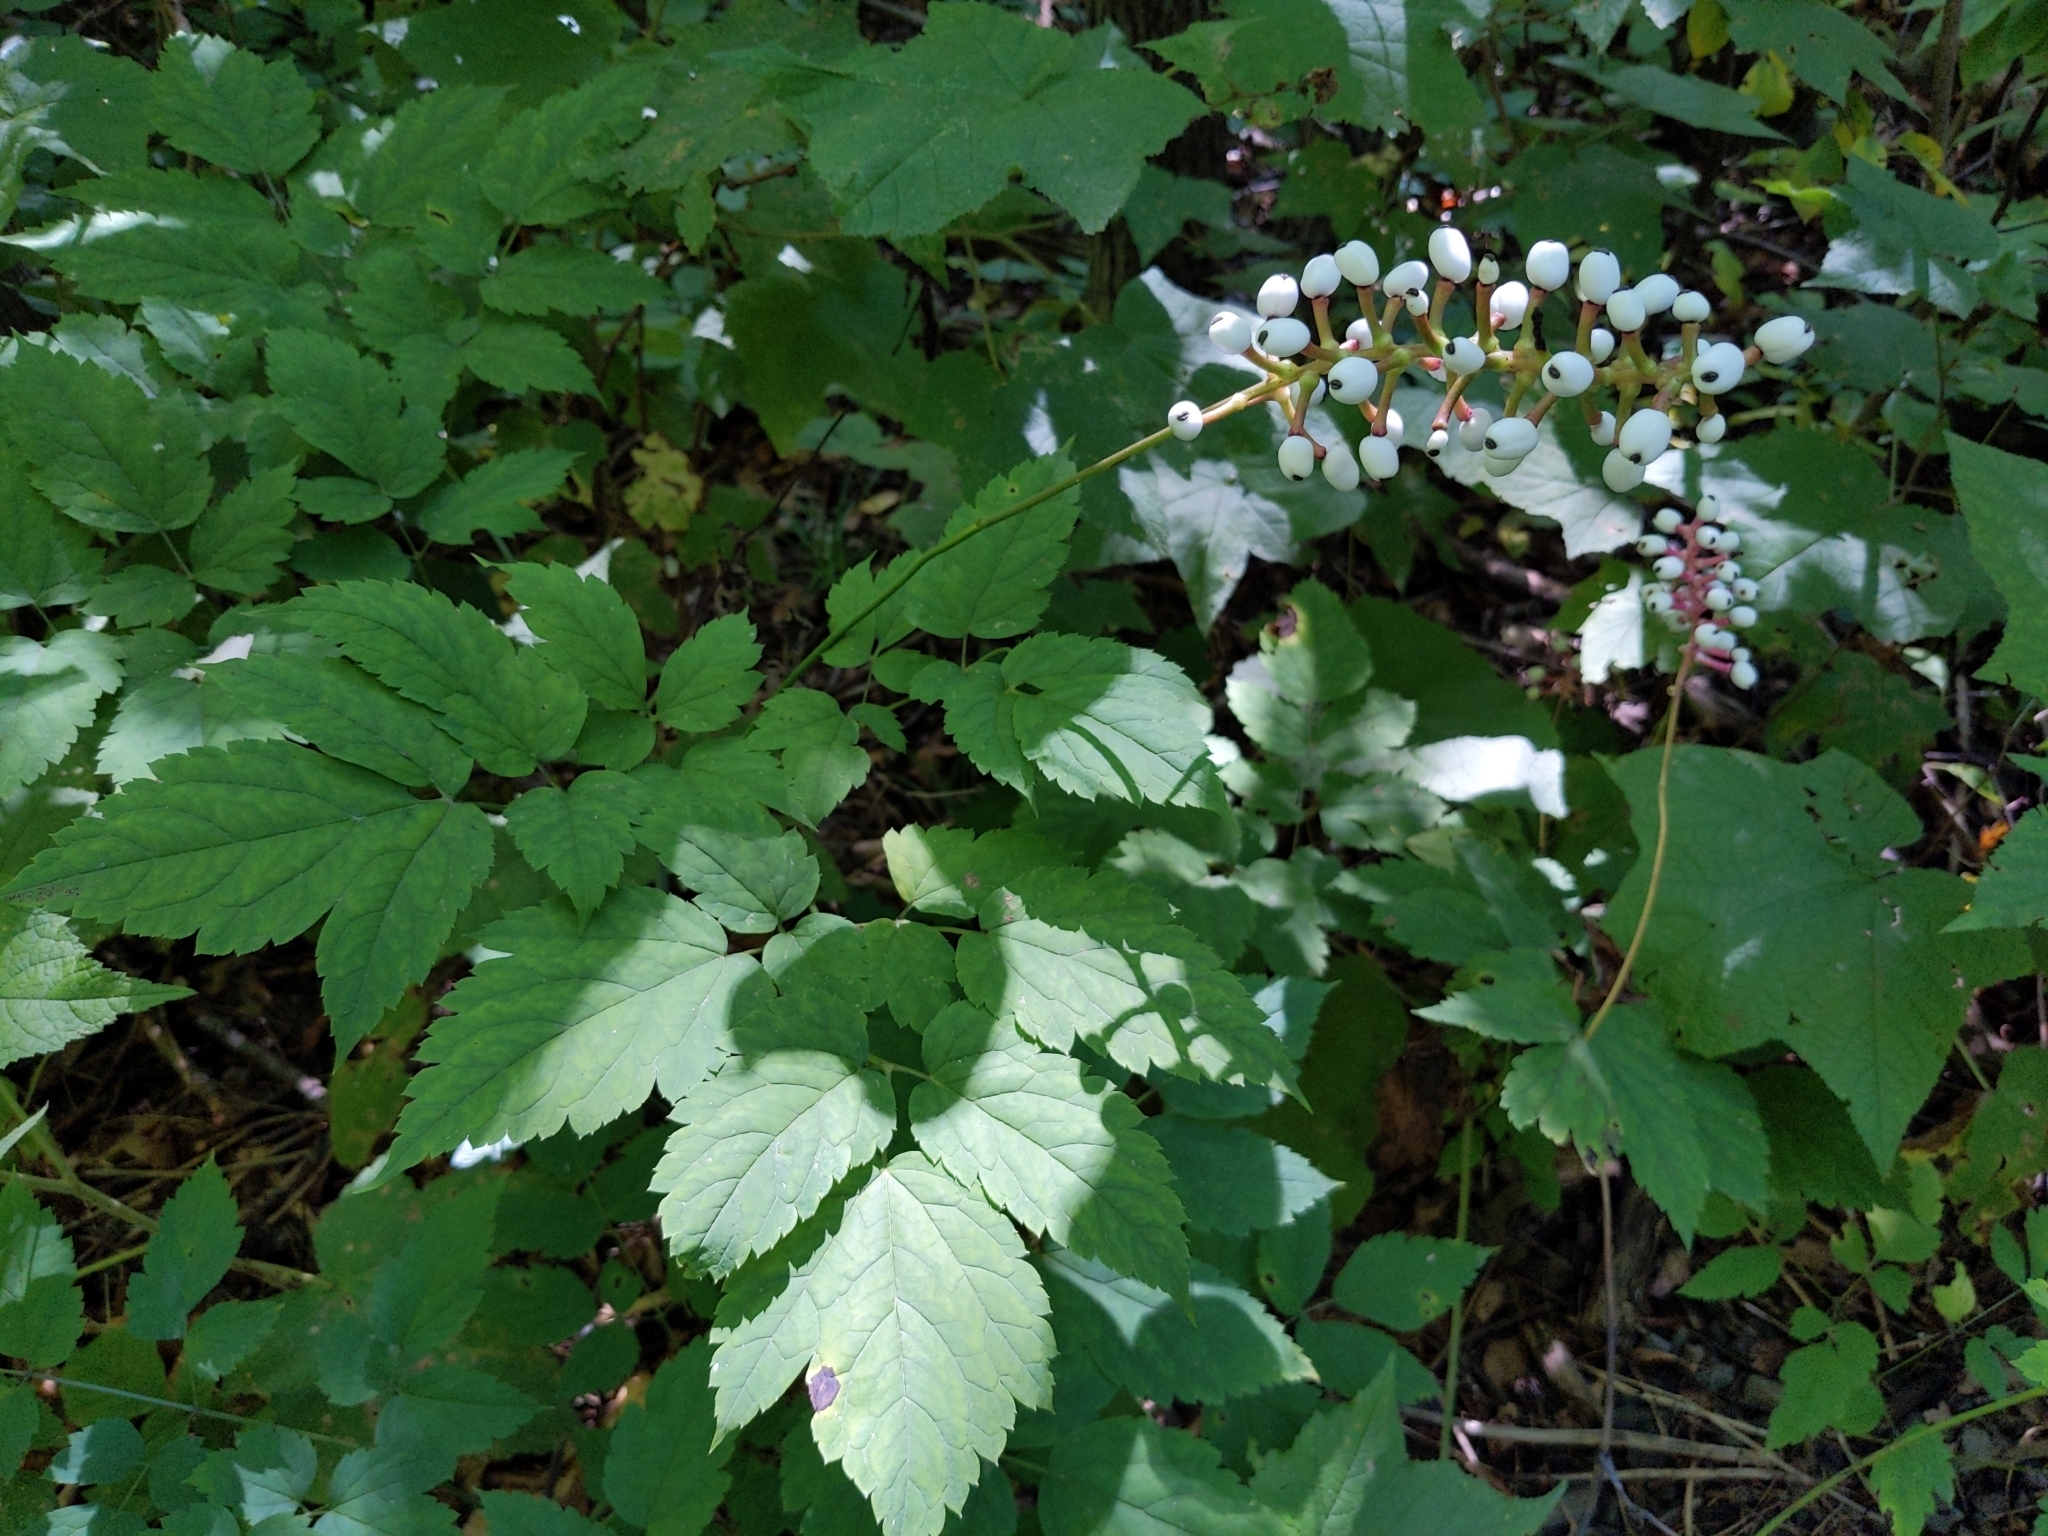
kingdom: Plantae
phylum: Tracheophyta
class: Magnoliopsida
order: Ranunculales
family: Ranunculaceae
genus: Actaea
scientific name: Actaea pachypoda
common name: Doll's-eyes
